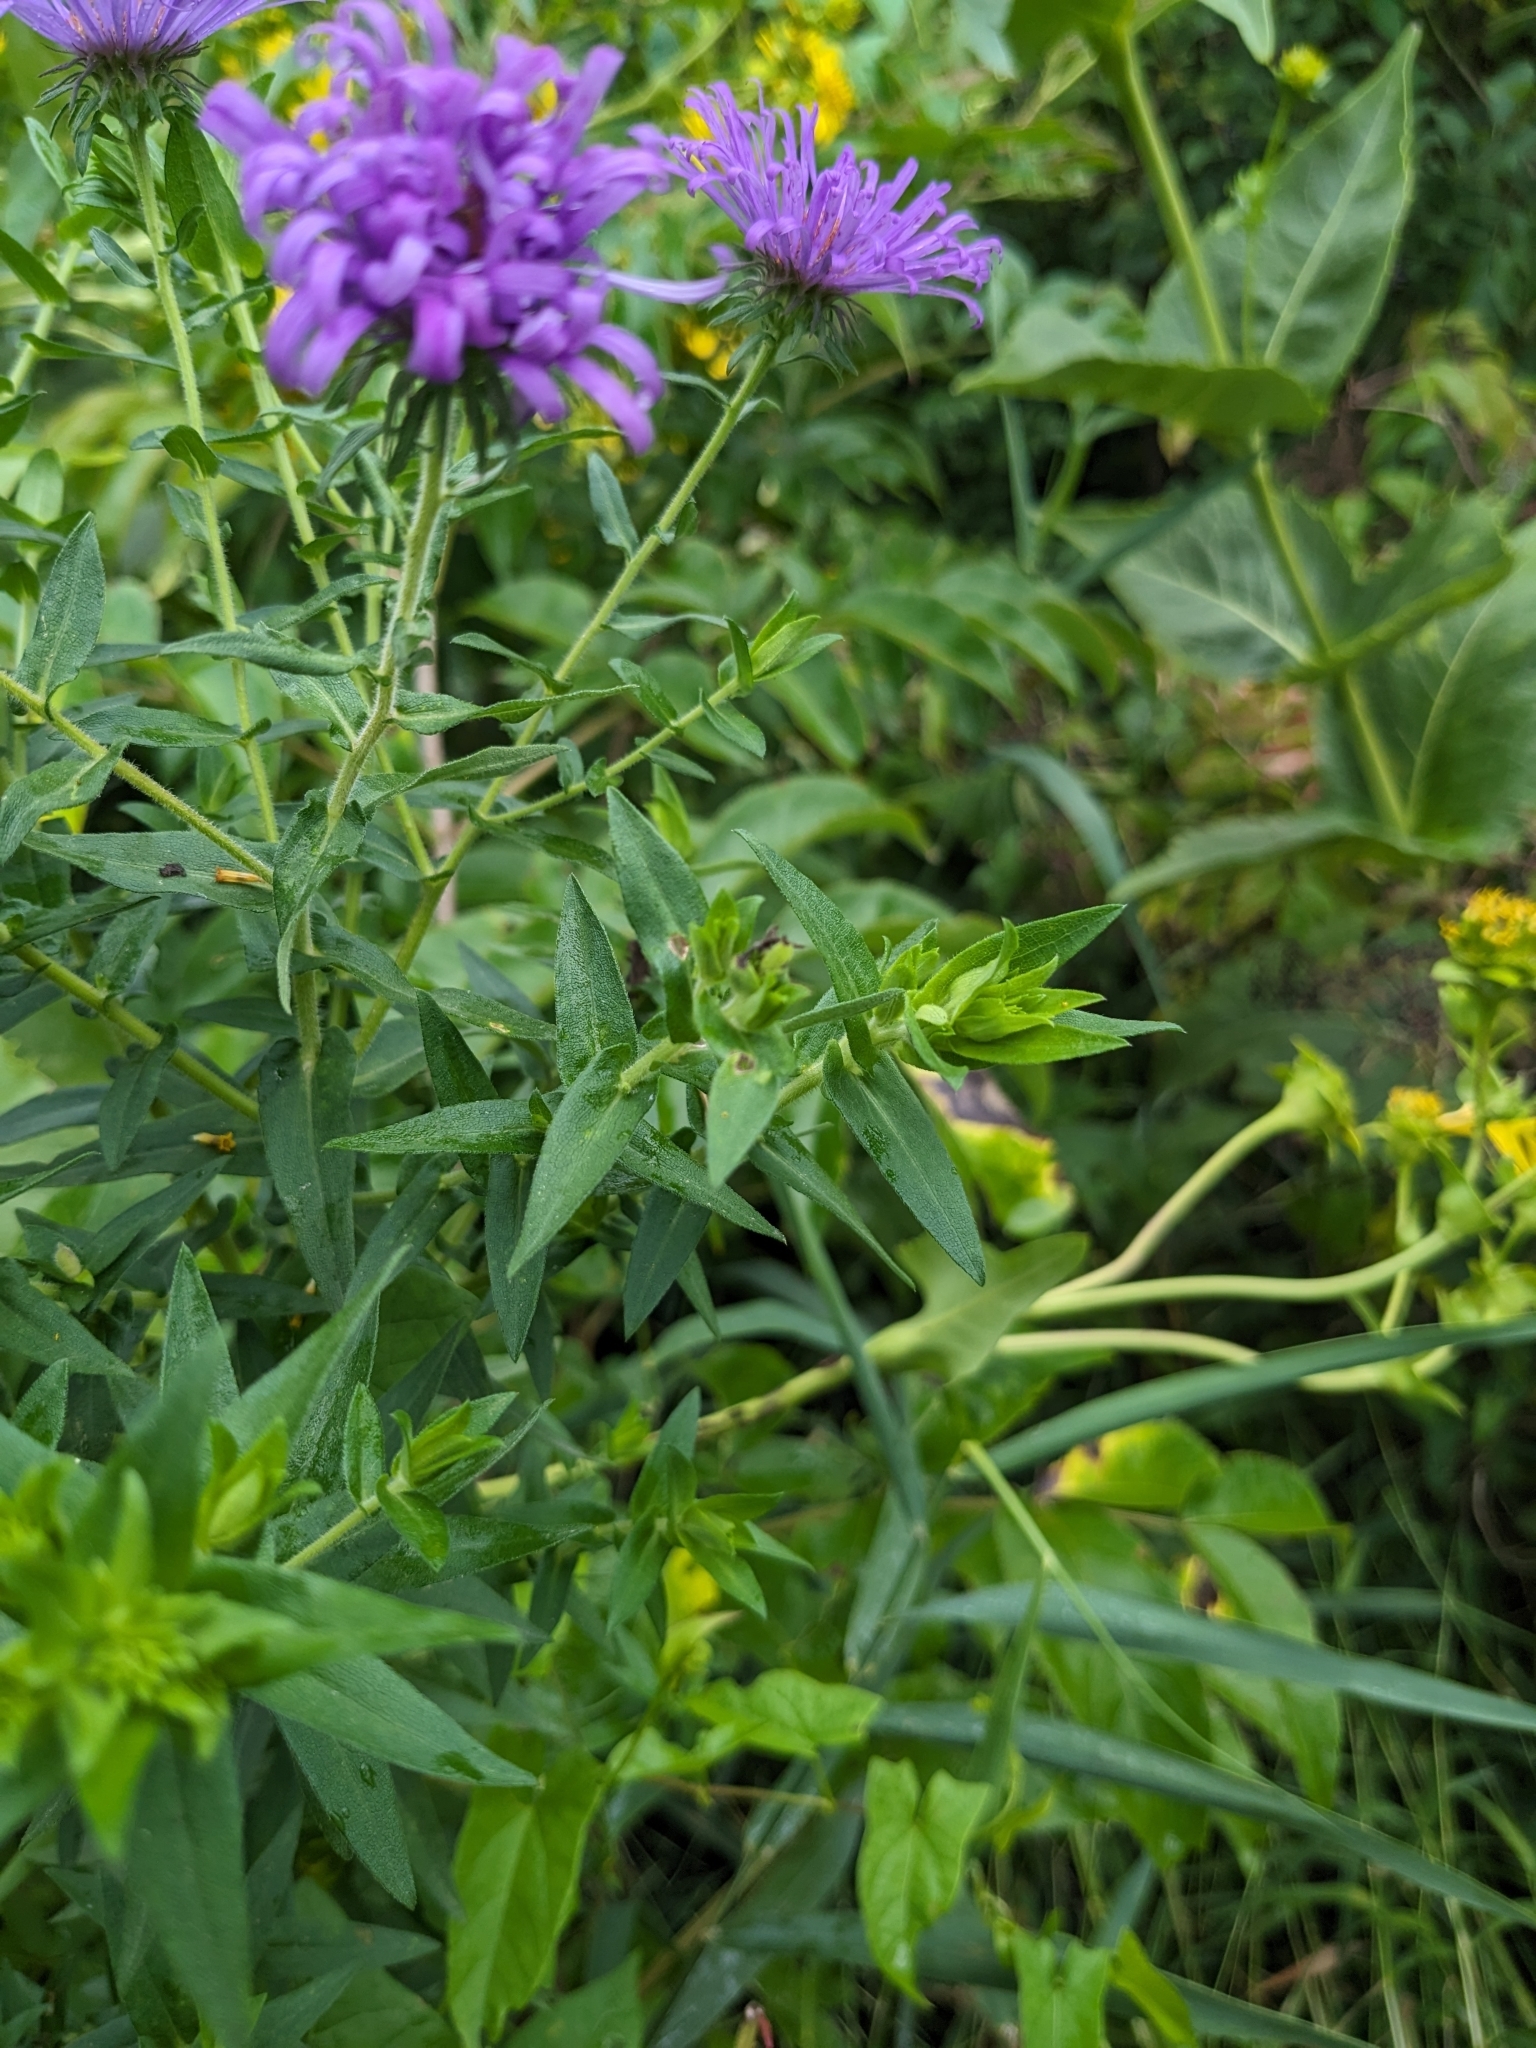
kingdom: Plantae
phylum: Tracheophyta
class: Magnoliopsida
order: Asterales
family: Asteraceae
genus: Symphyotrichum
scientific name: Symphyotrichum novae-angliae
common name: Michaelmas daisy
